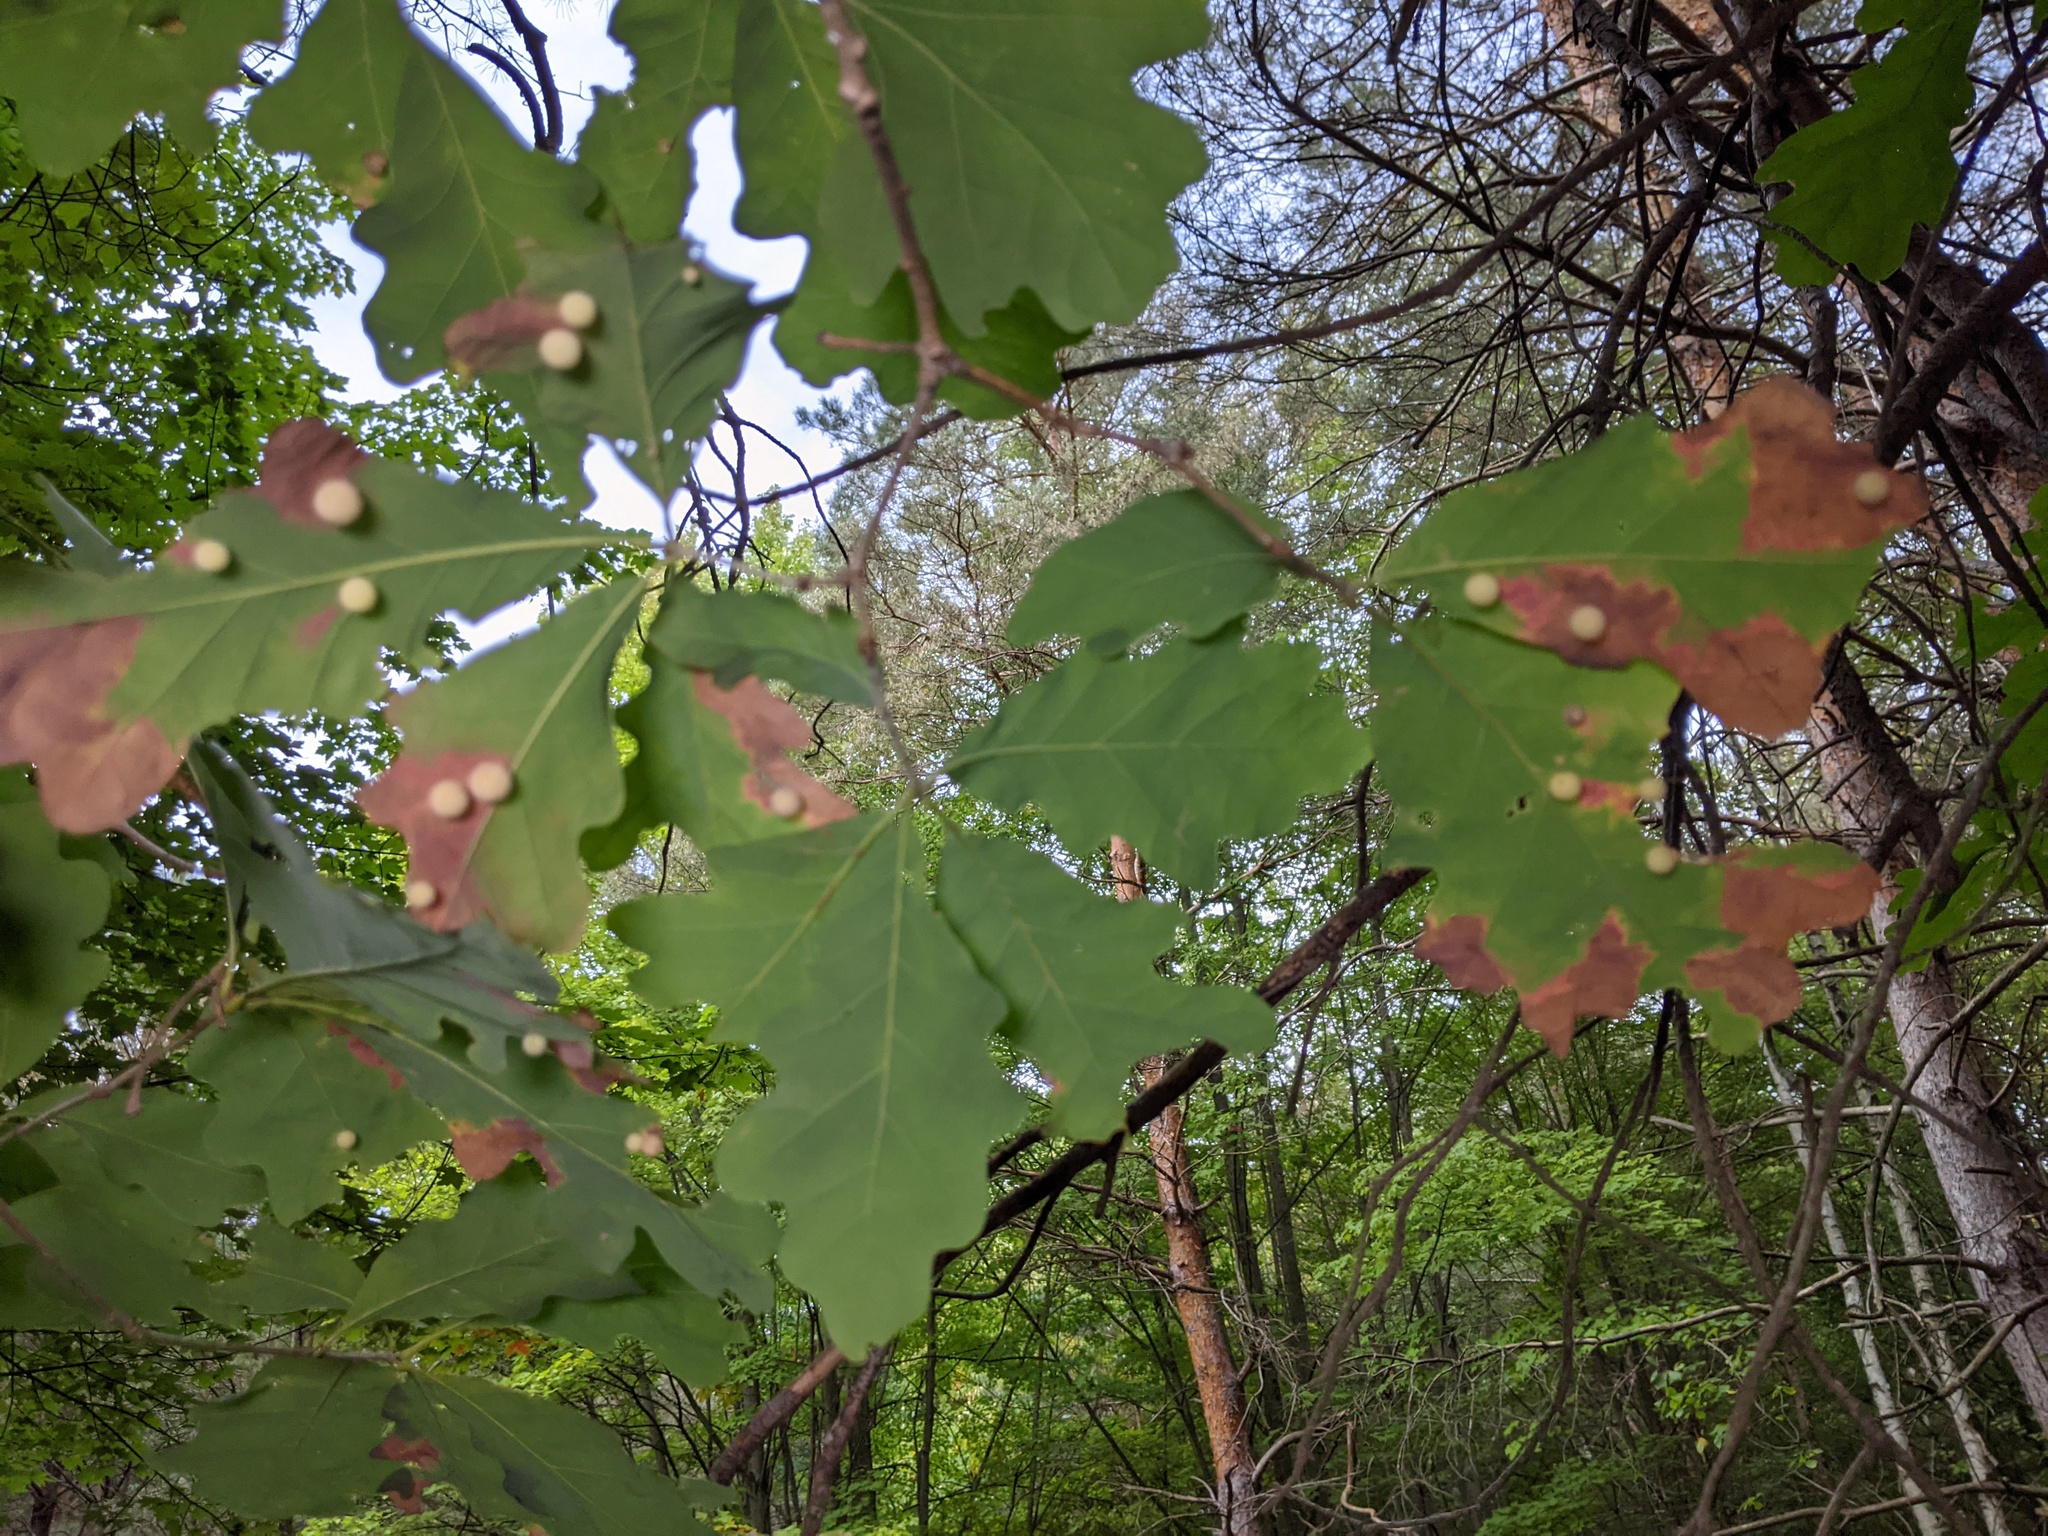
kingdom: Animalia
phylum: Arthropoda
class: Insecta
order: Hymenoptera
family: Cynipidae
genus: Philonix
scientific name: Philonix fulvicollis
